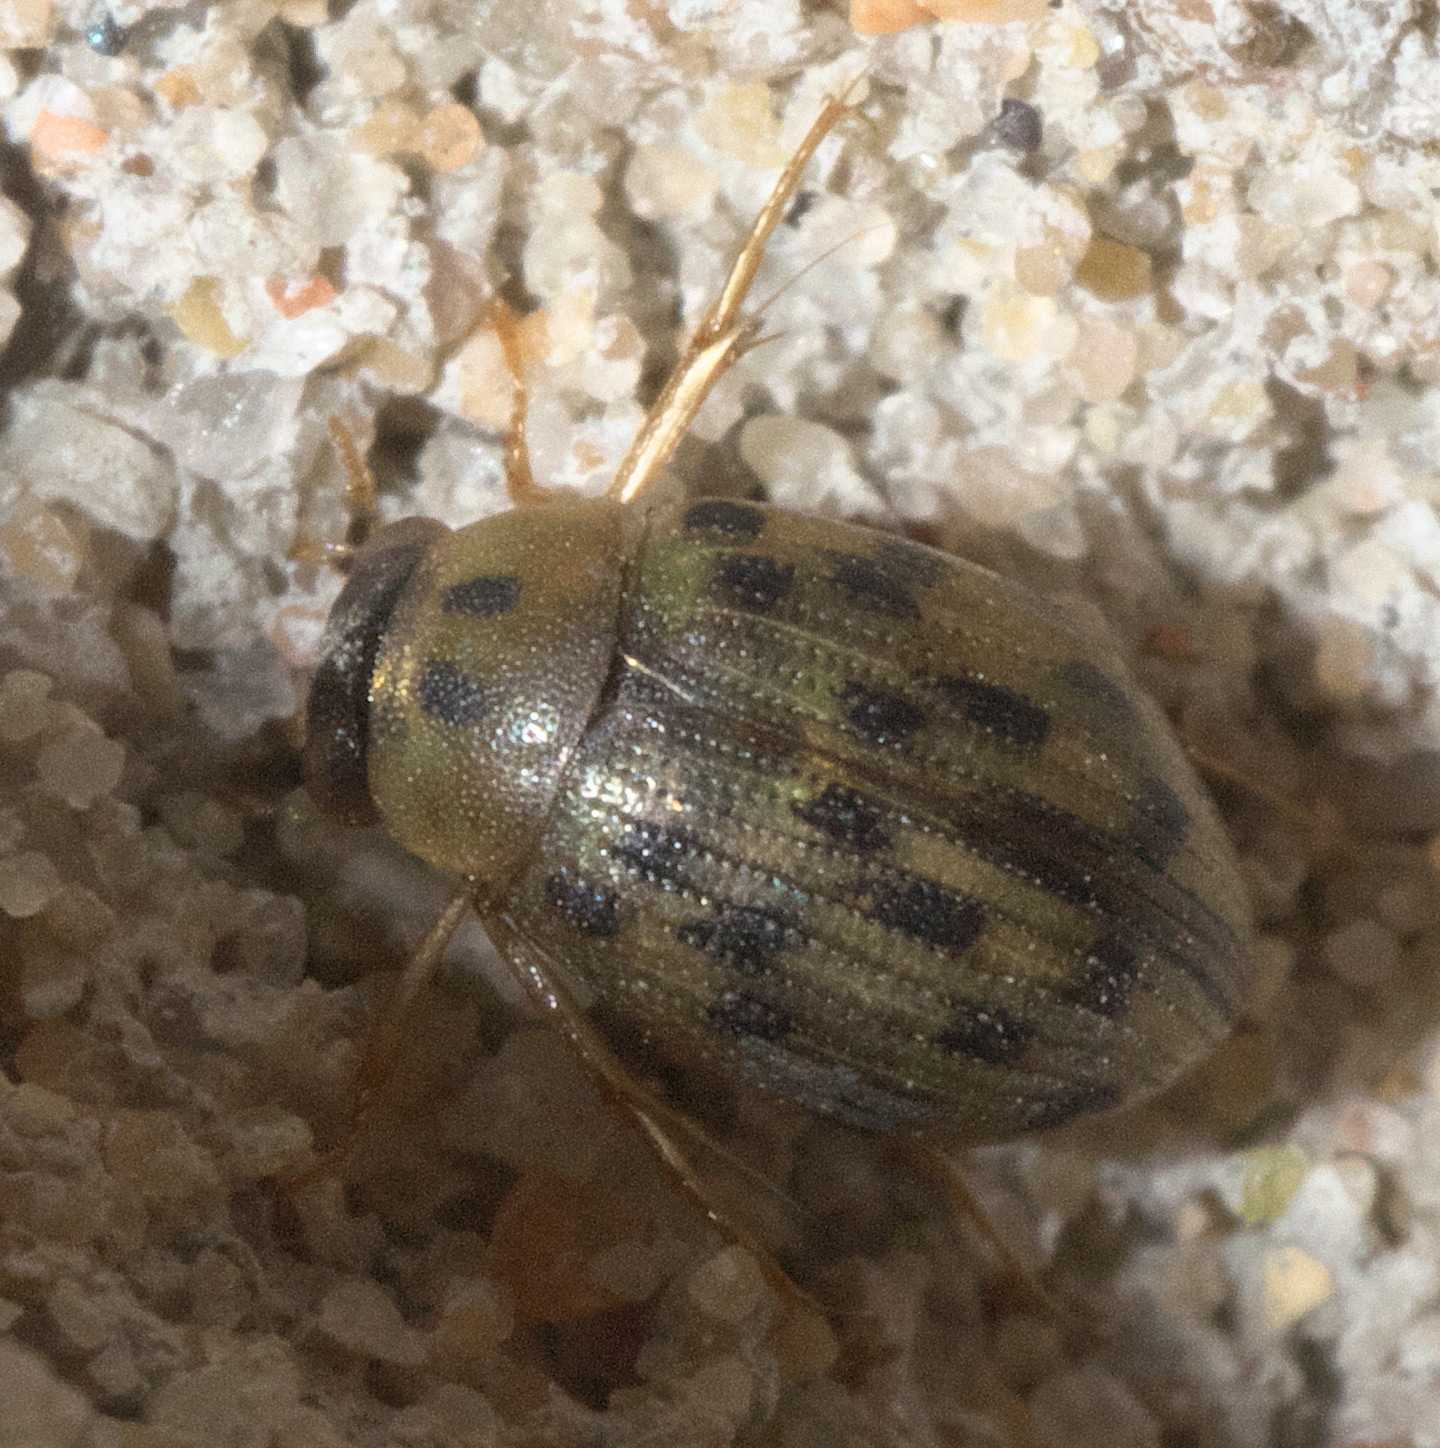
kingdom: Animalia
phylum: Arthropoda
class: Insecta
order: Coleoptera
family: Hydrophilidae
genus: Berosus
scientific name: Berosus pantherinus
